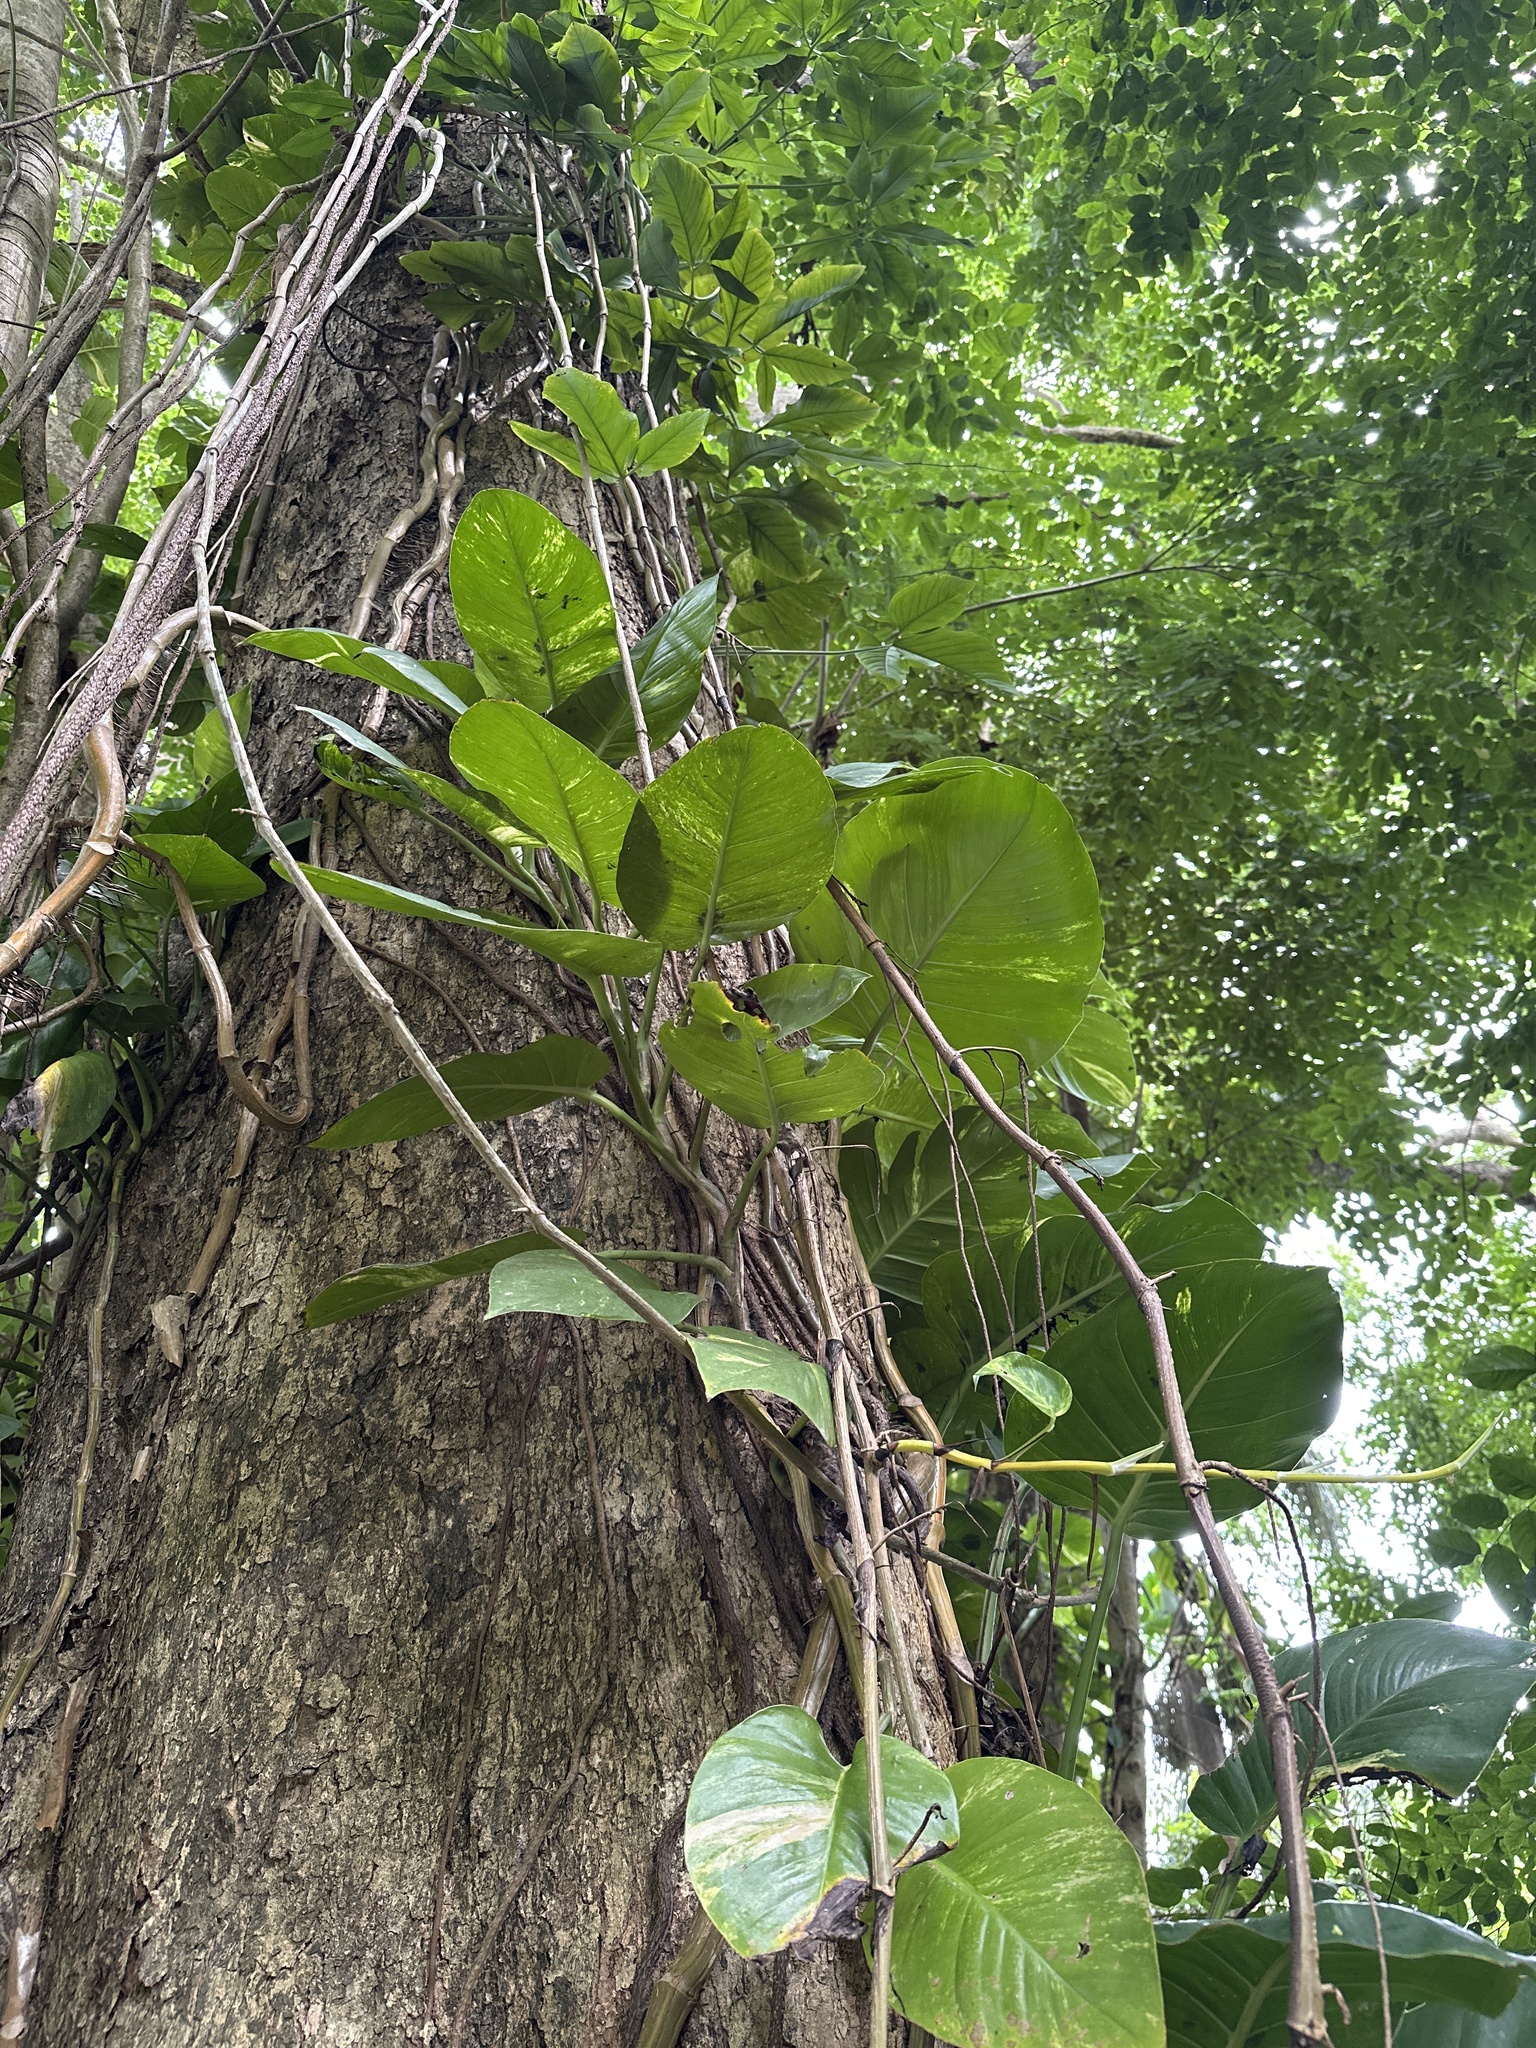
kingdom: Plantae
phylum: Tracheophyta
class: Liliopsida
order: Alismatales
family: Araceae
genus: Epipremnum
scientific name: Epipremnum aureum
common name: Golden hunter's-robe
